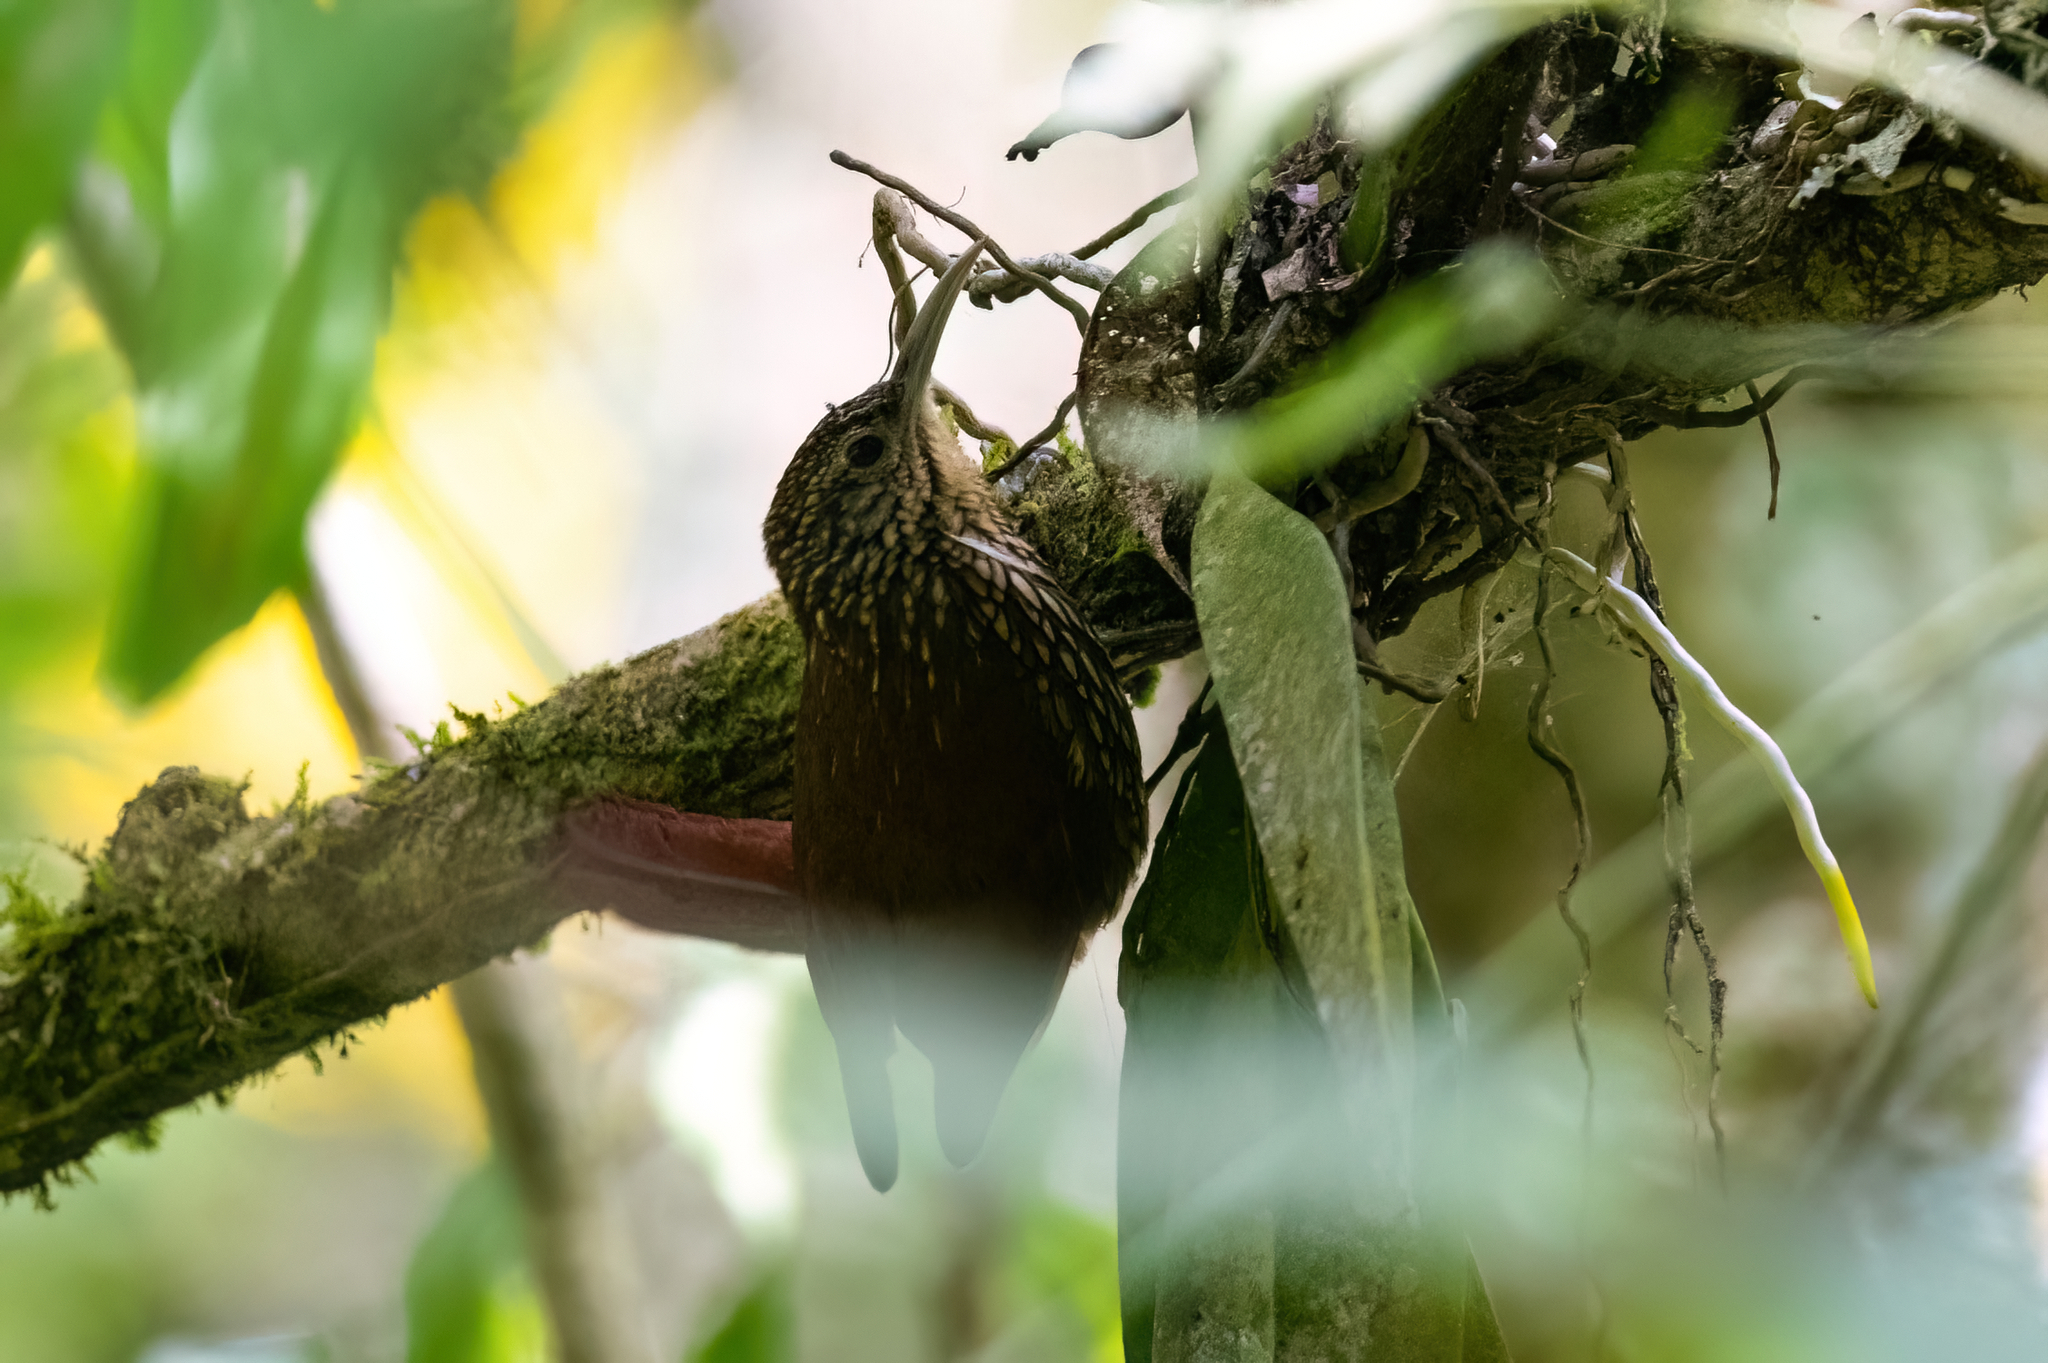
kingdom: Animalia
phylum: Chordata
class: Aves
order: Passeriformes
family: Furnariidae
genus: Lepidocolaptes
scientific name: Lepidocolaptes affinis
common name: Spot-crowned woodcreeper
